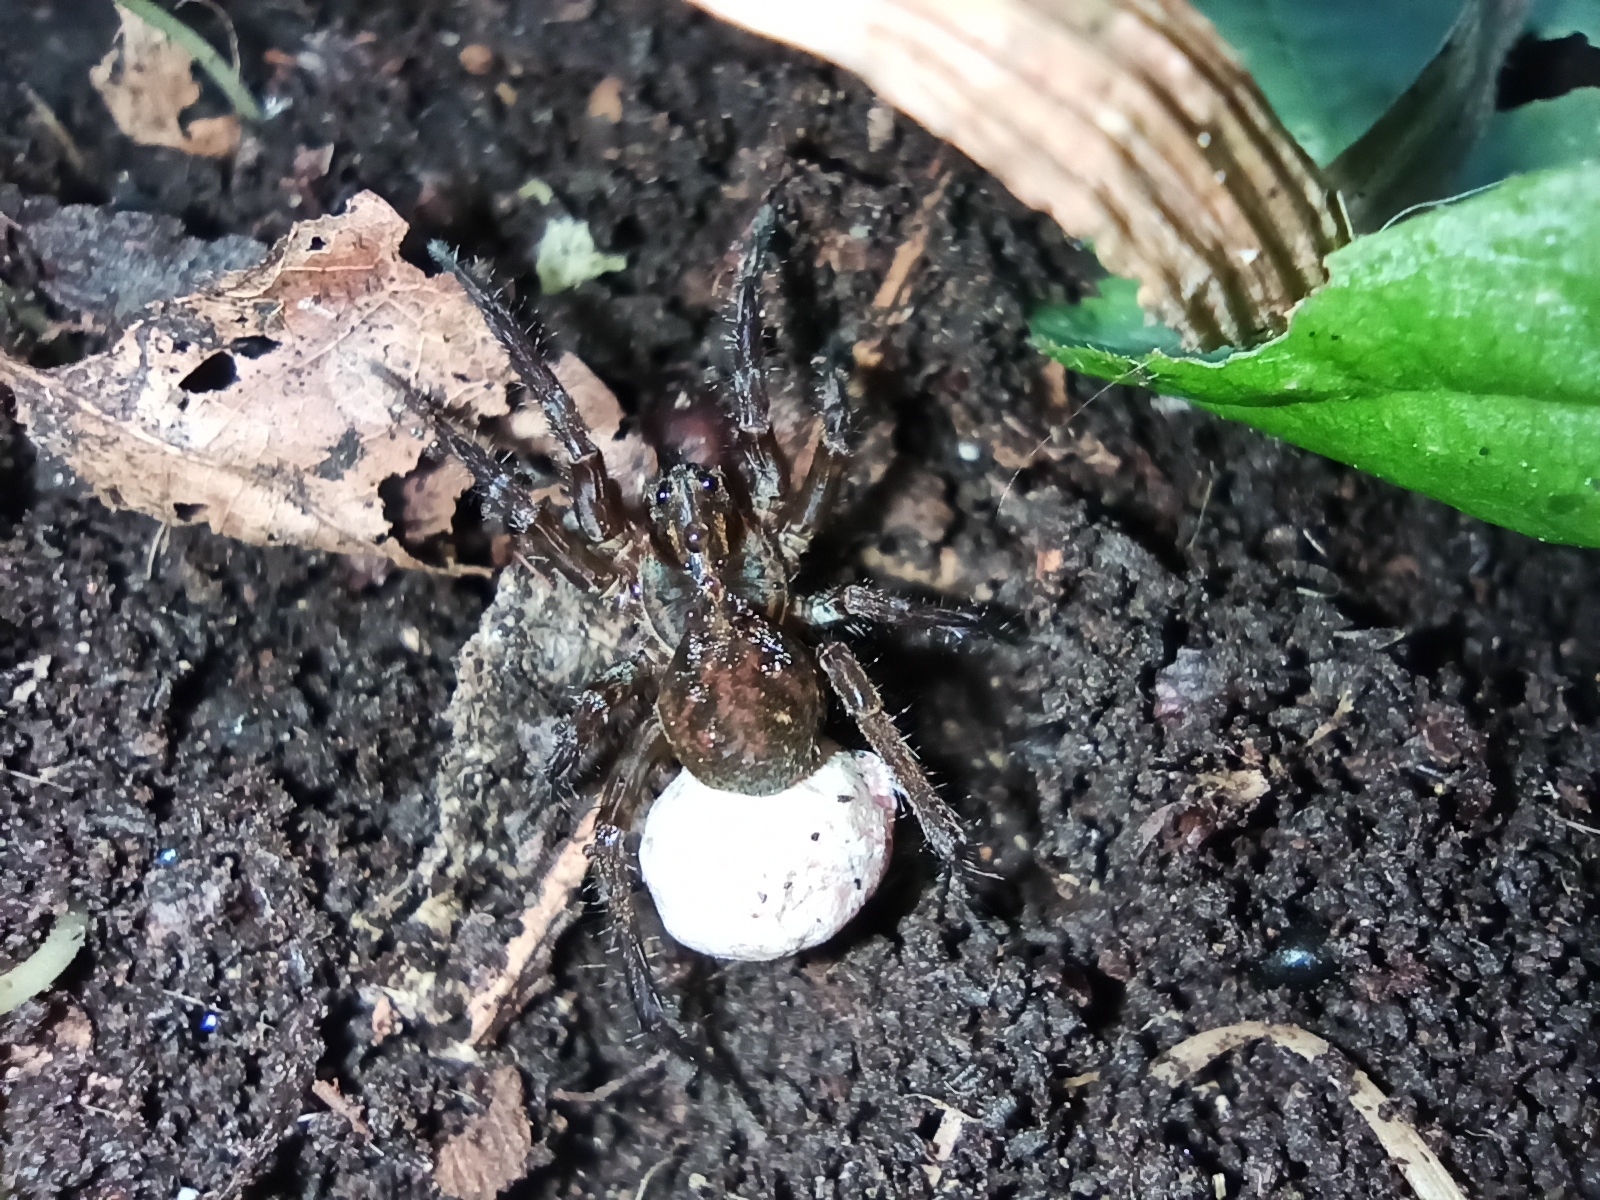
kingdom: Animalia
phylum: Arthropoda
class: Arachnida
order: Araneae
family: Lycosidae
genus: Allotrochosina
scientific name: Allotrochosina schauinslandi
